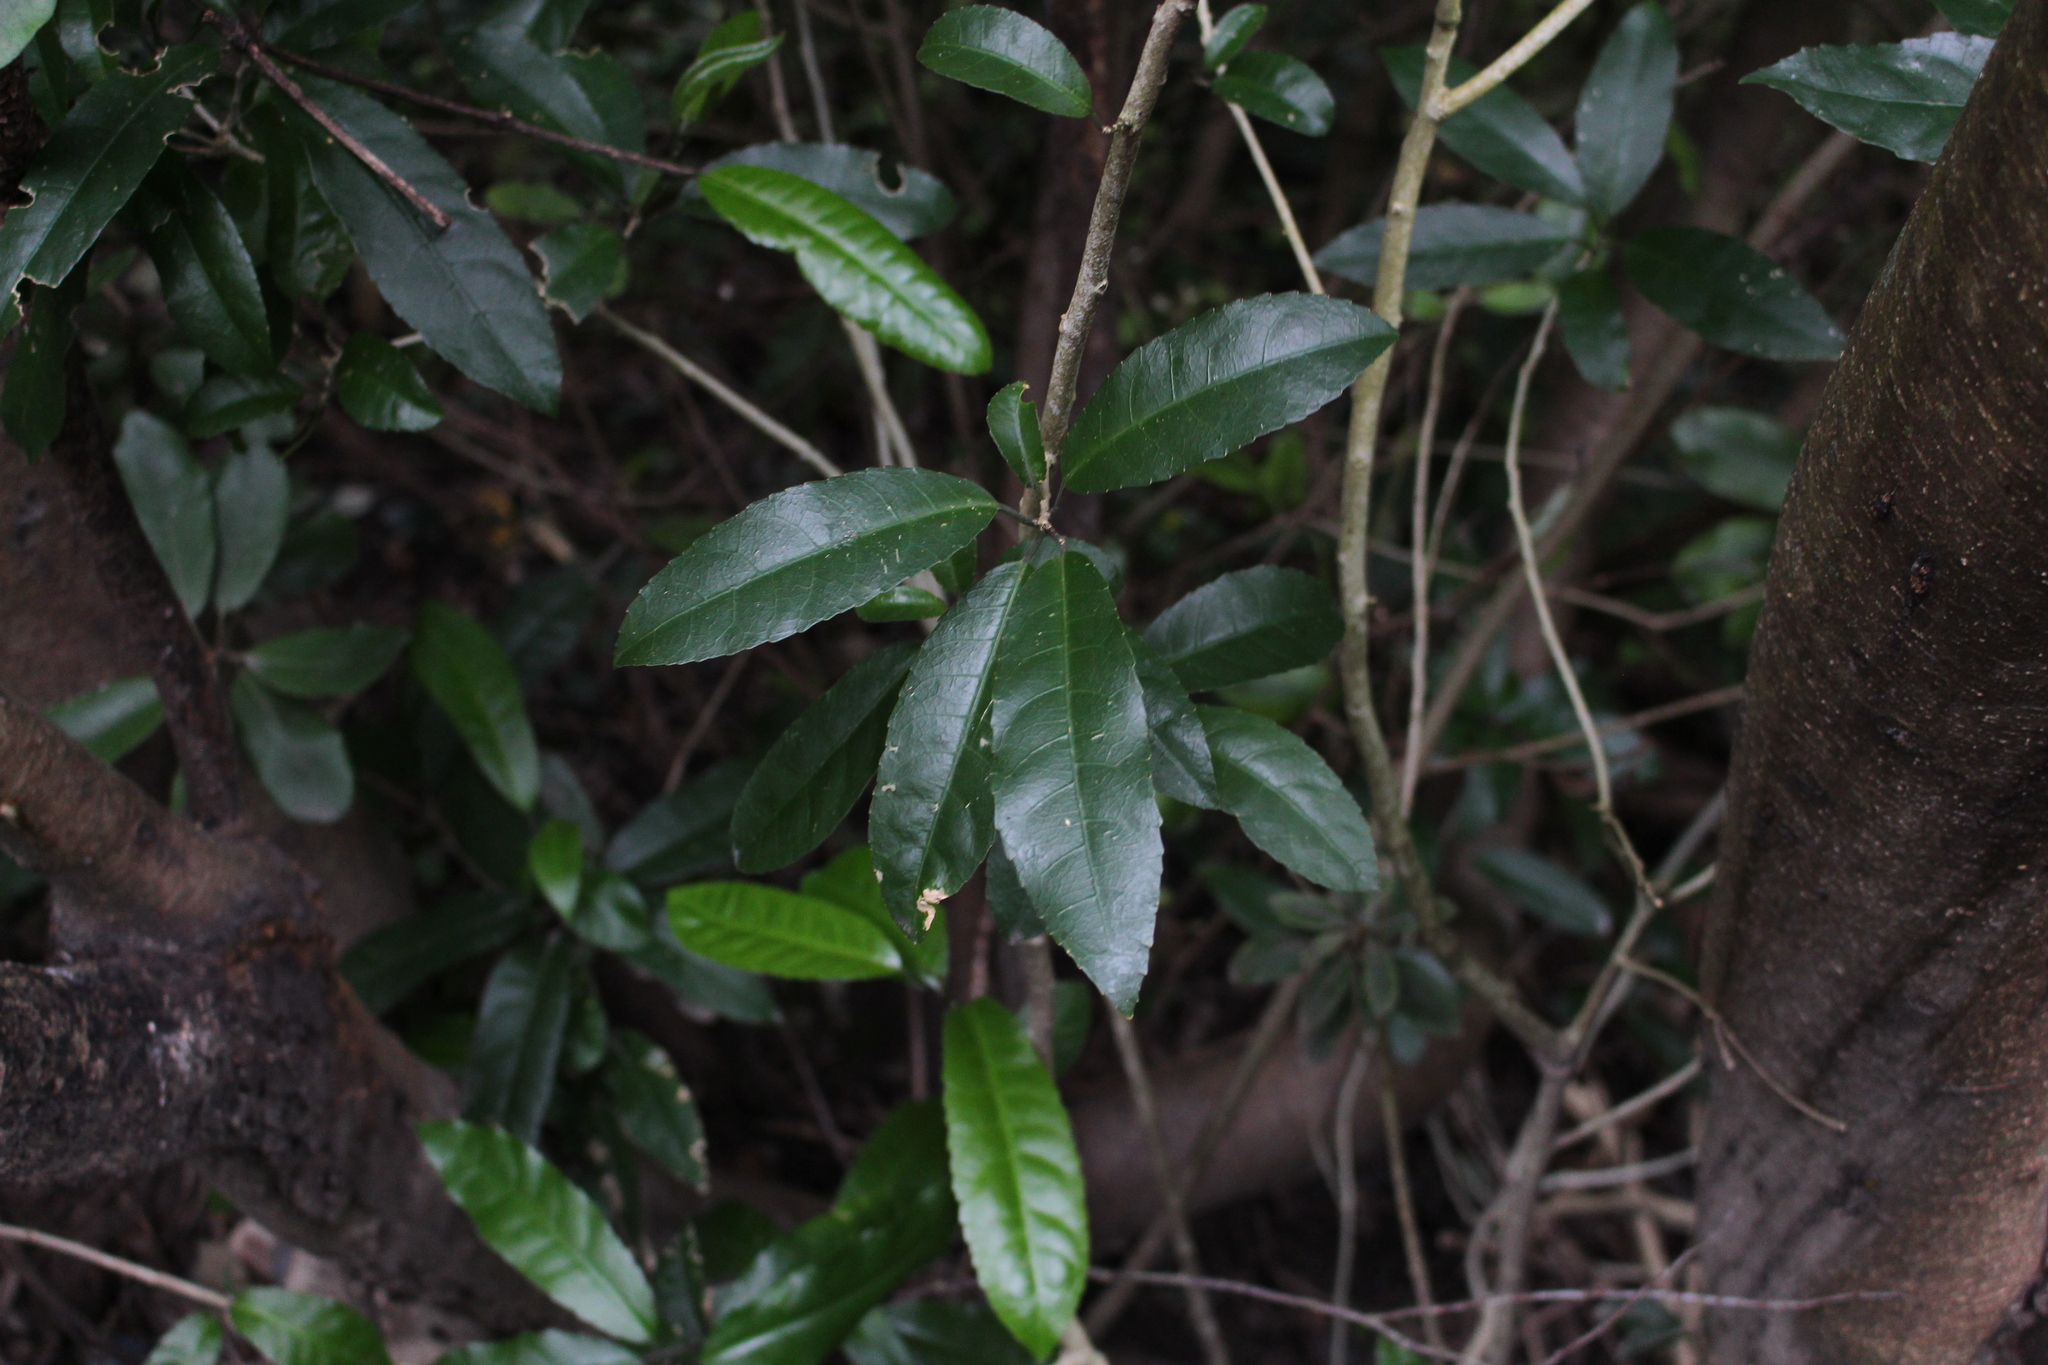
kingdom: Plantae
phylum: Tracheophyta
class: Magnoliopsida
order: Malpighiales
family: Violaceae
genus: Melicytus
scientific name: Melicytus ramiflorus
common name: Mahoe
